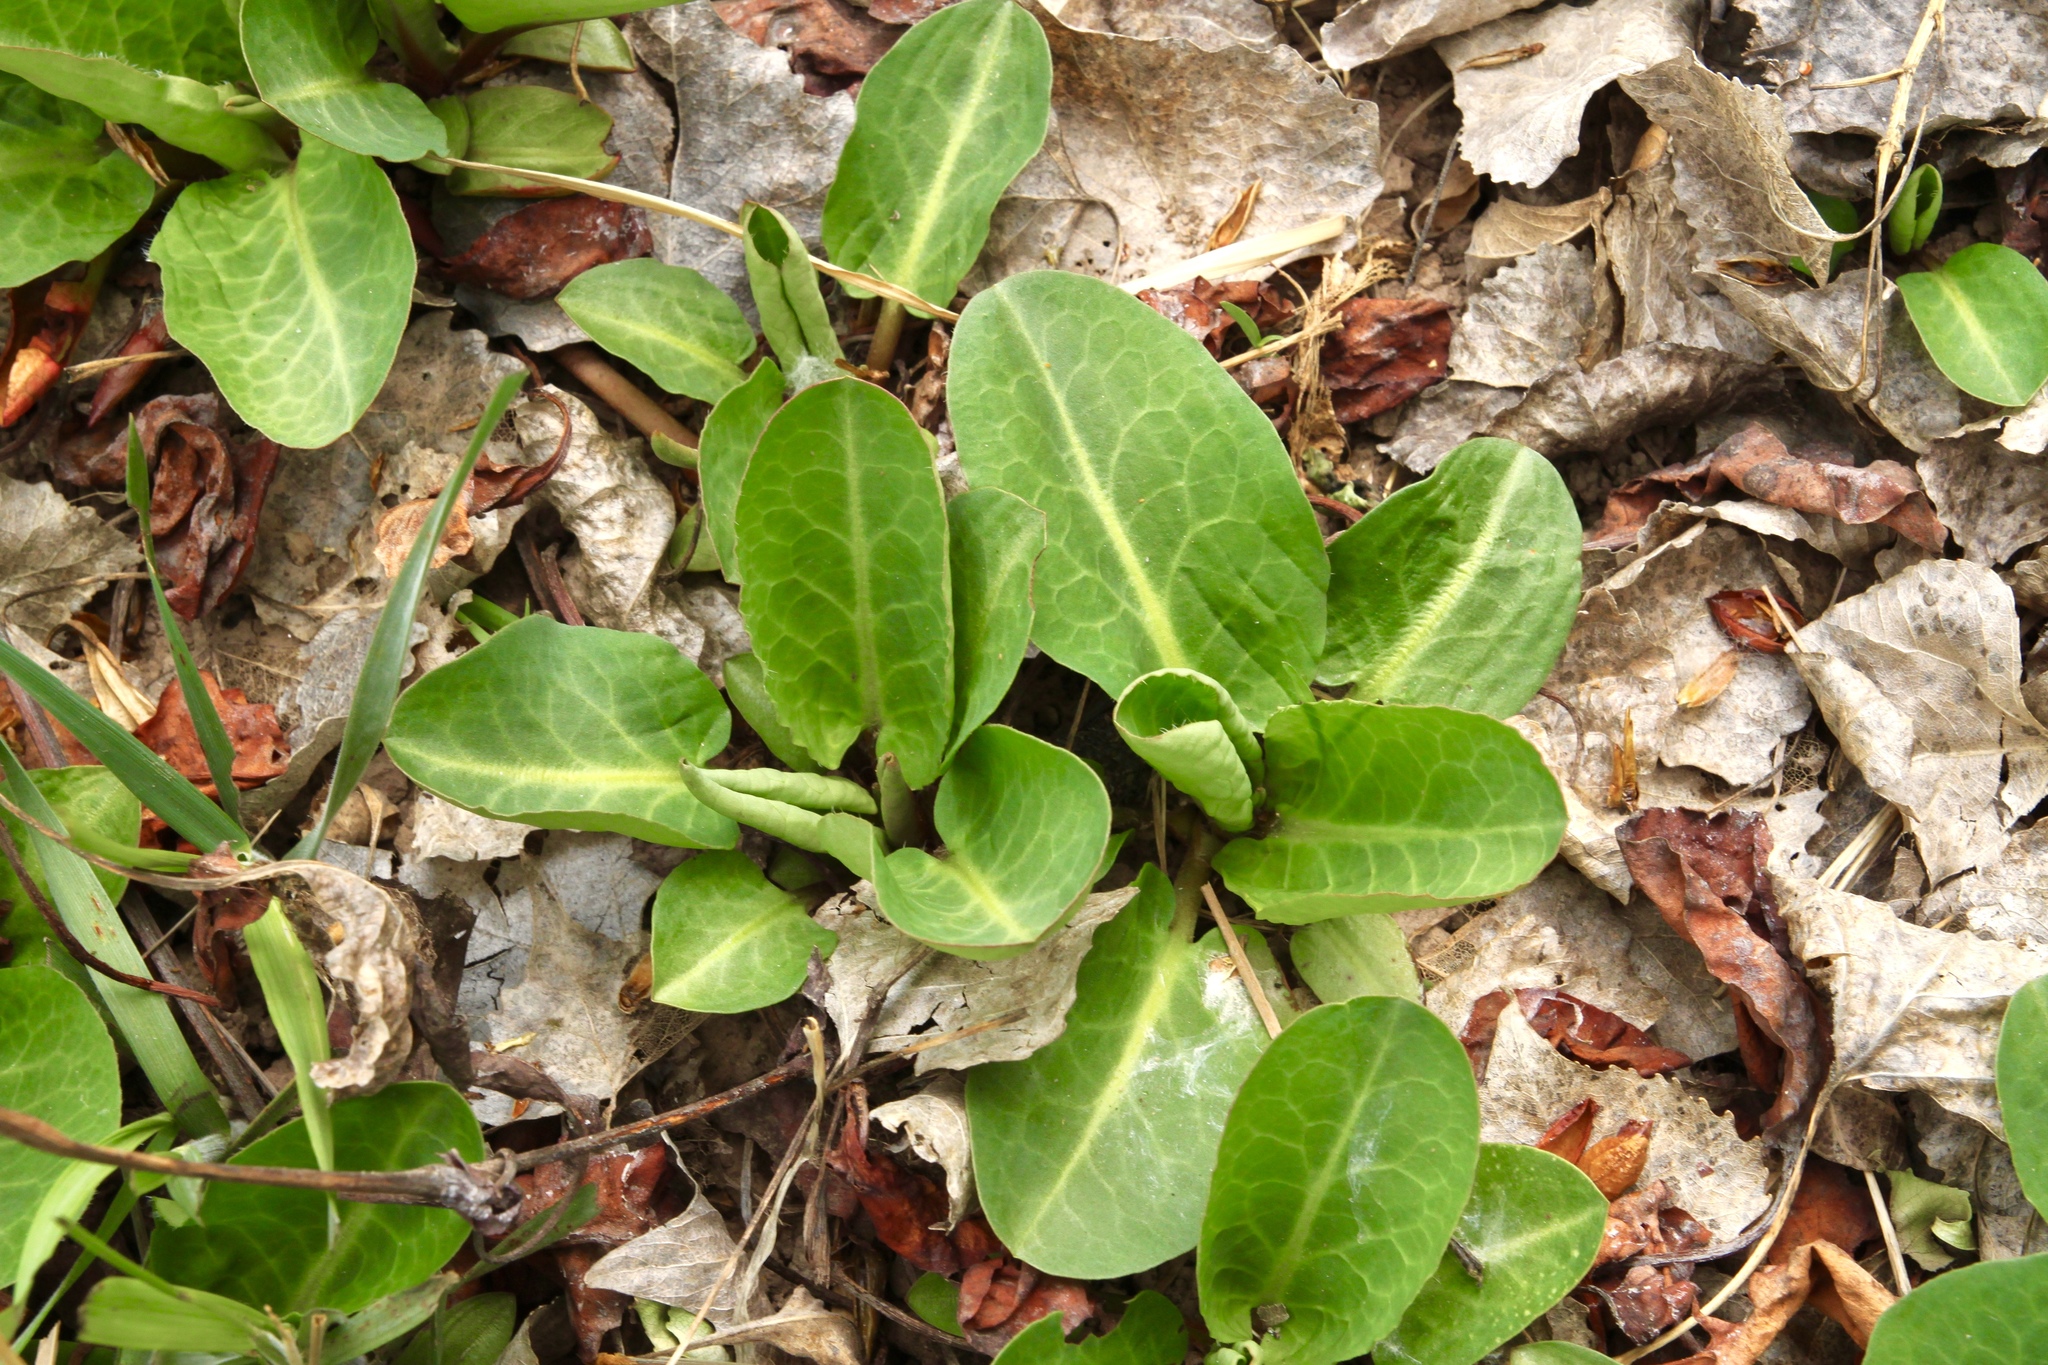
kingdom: Plantae
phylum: Tracheophyta
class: Magnoliopsida
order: Piperales
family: Saururaceae
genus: Anemopsis
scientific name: Anemopsis californica
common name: Apache-beads
